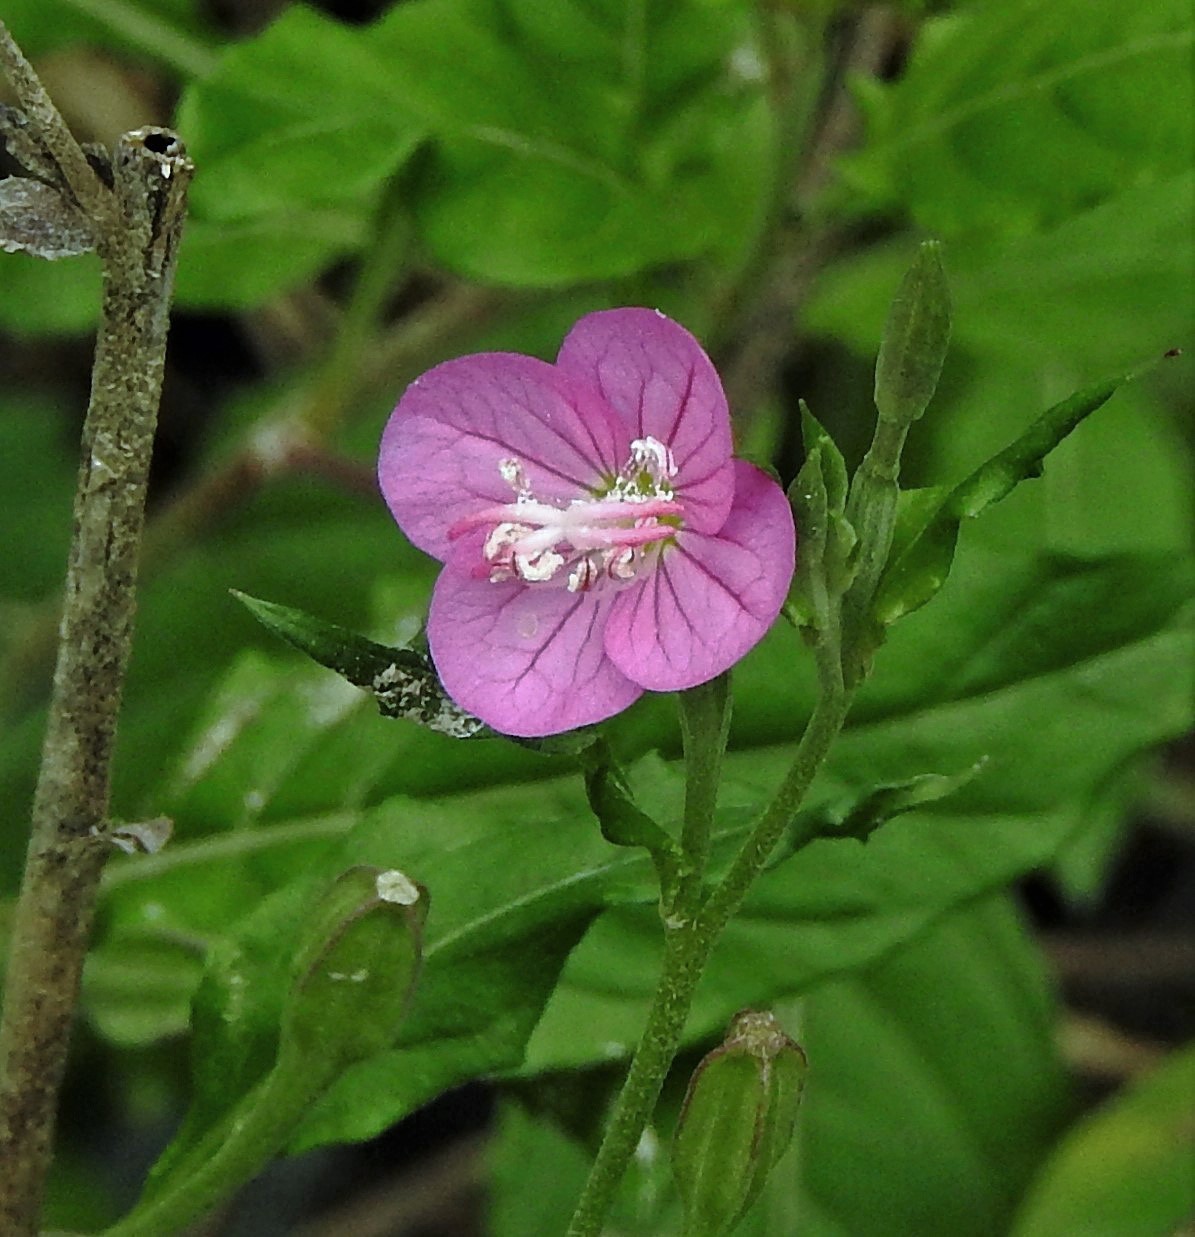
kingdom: Plantae
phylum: Tracheophyta
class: Magnoliopsida
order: Myrtales
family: Onagraceae
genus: Oenothera
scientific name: Oenothera rosea
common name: Rosy evening-primrose
